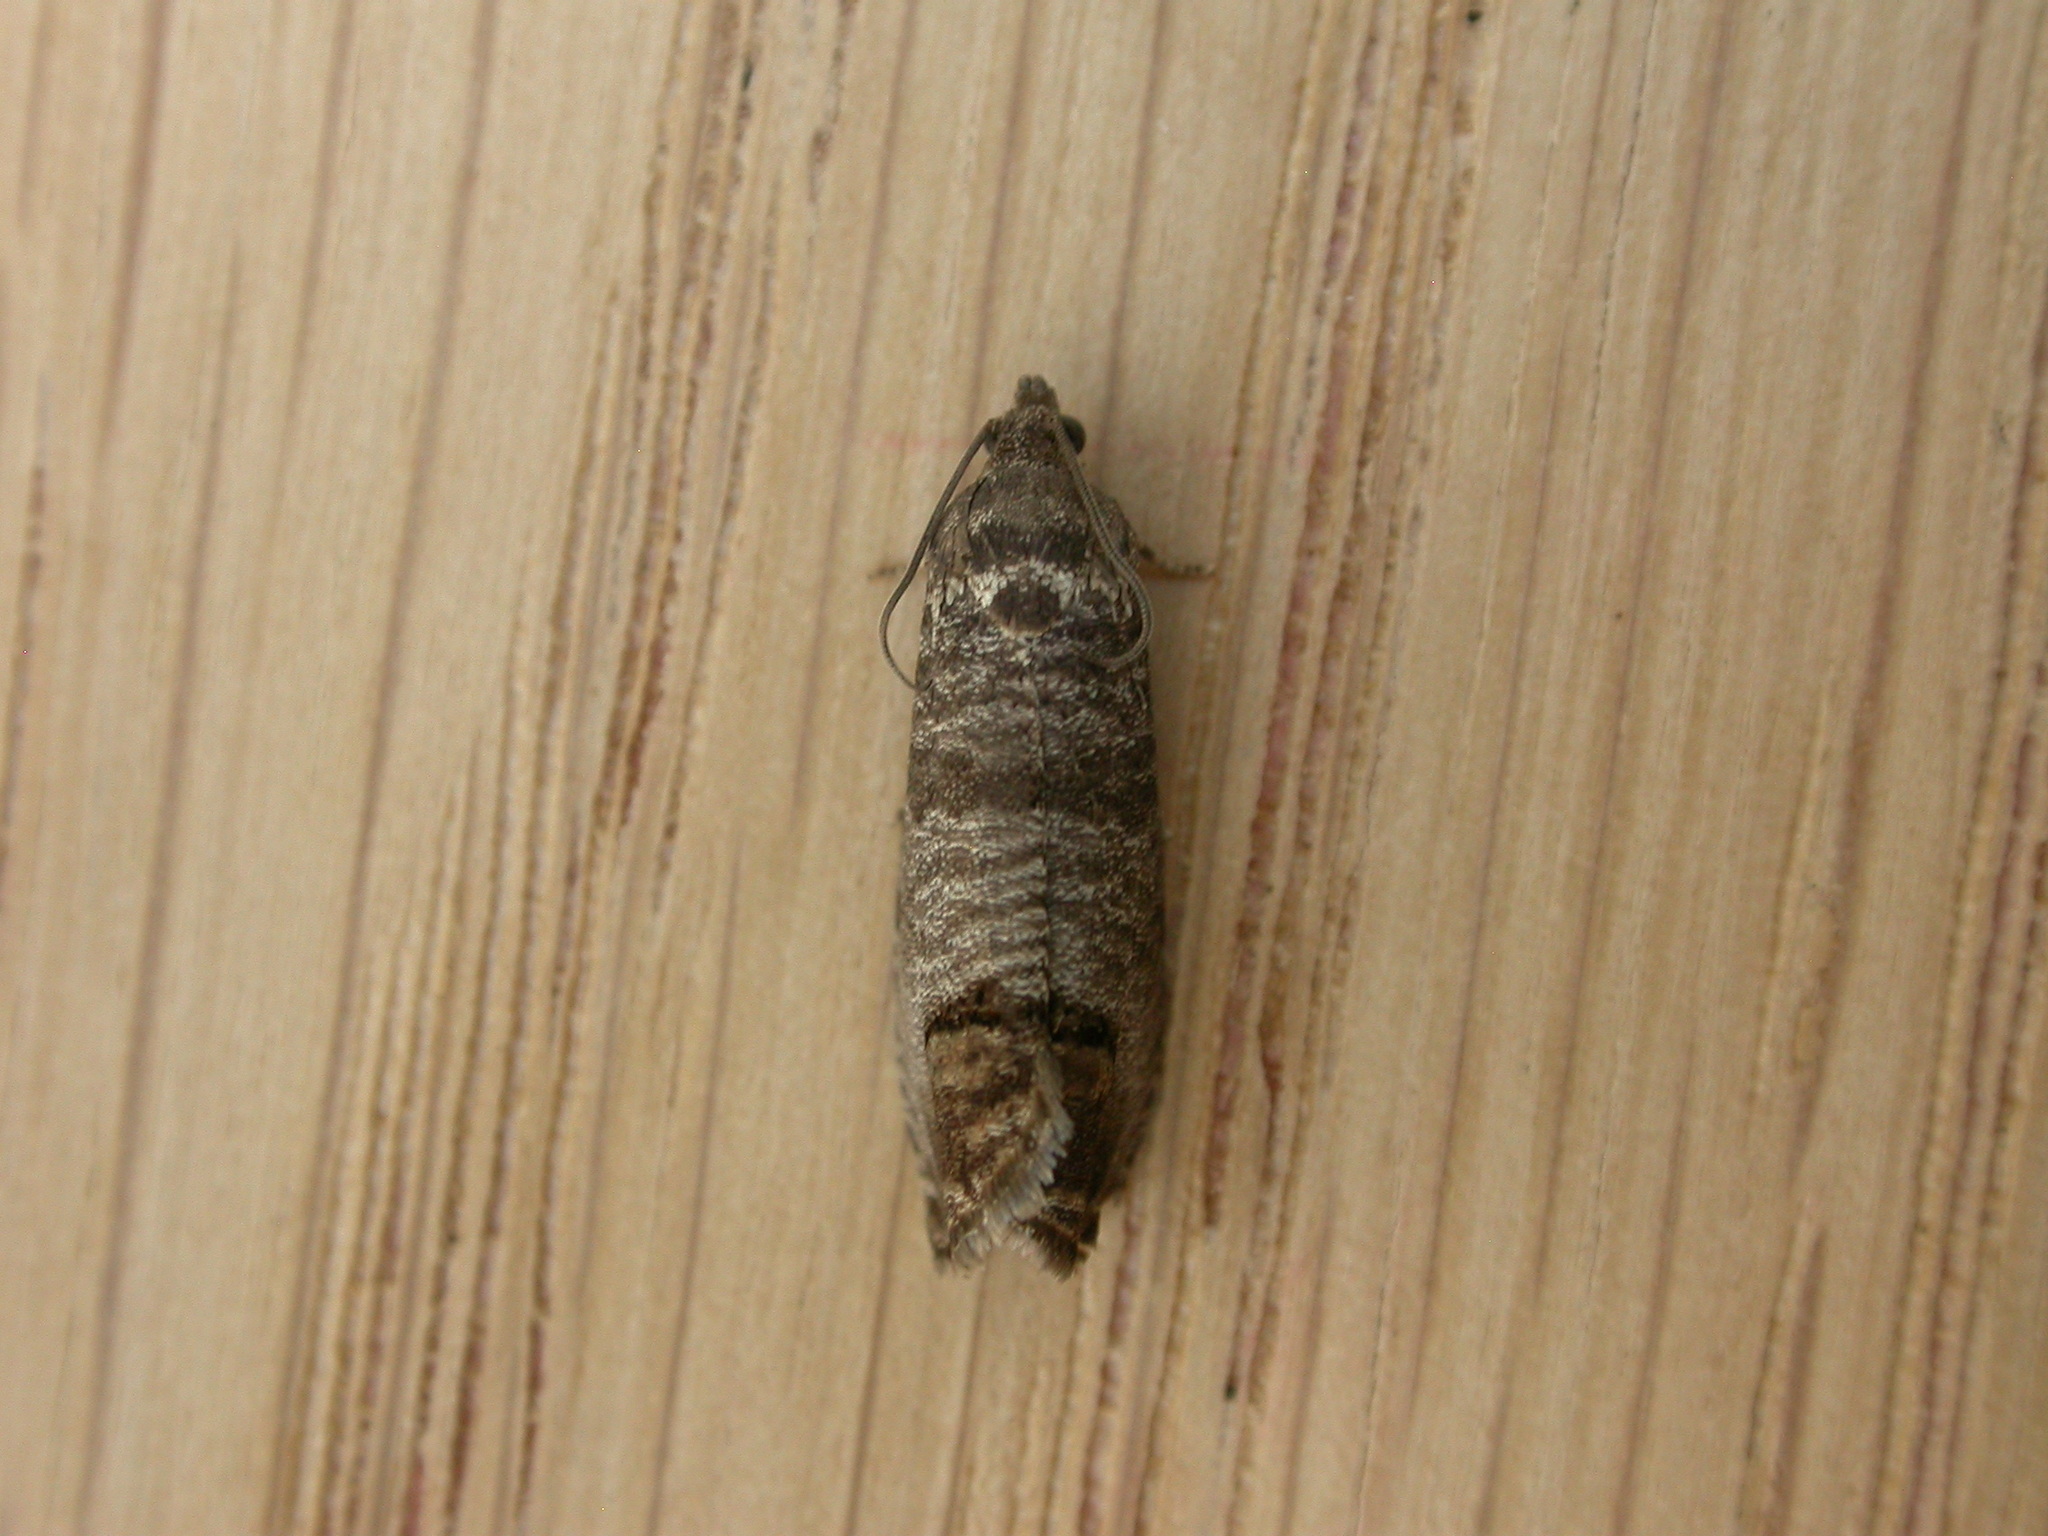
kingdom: Animalia
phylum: Arthropoda
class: Insecta
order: Lepidoptera
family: Tortricidae
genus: Cydia
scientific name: Cydia pomonella
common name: Codling moth
